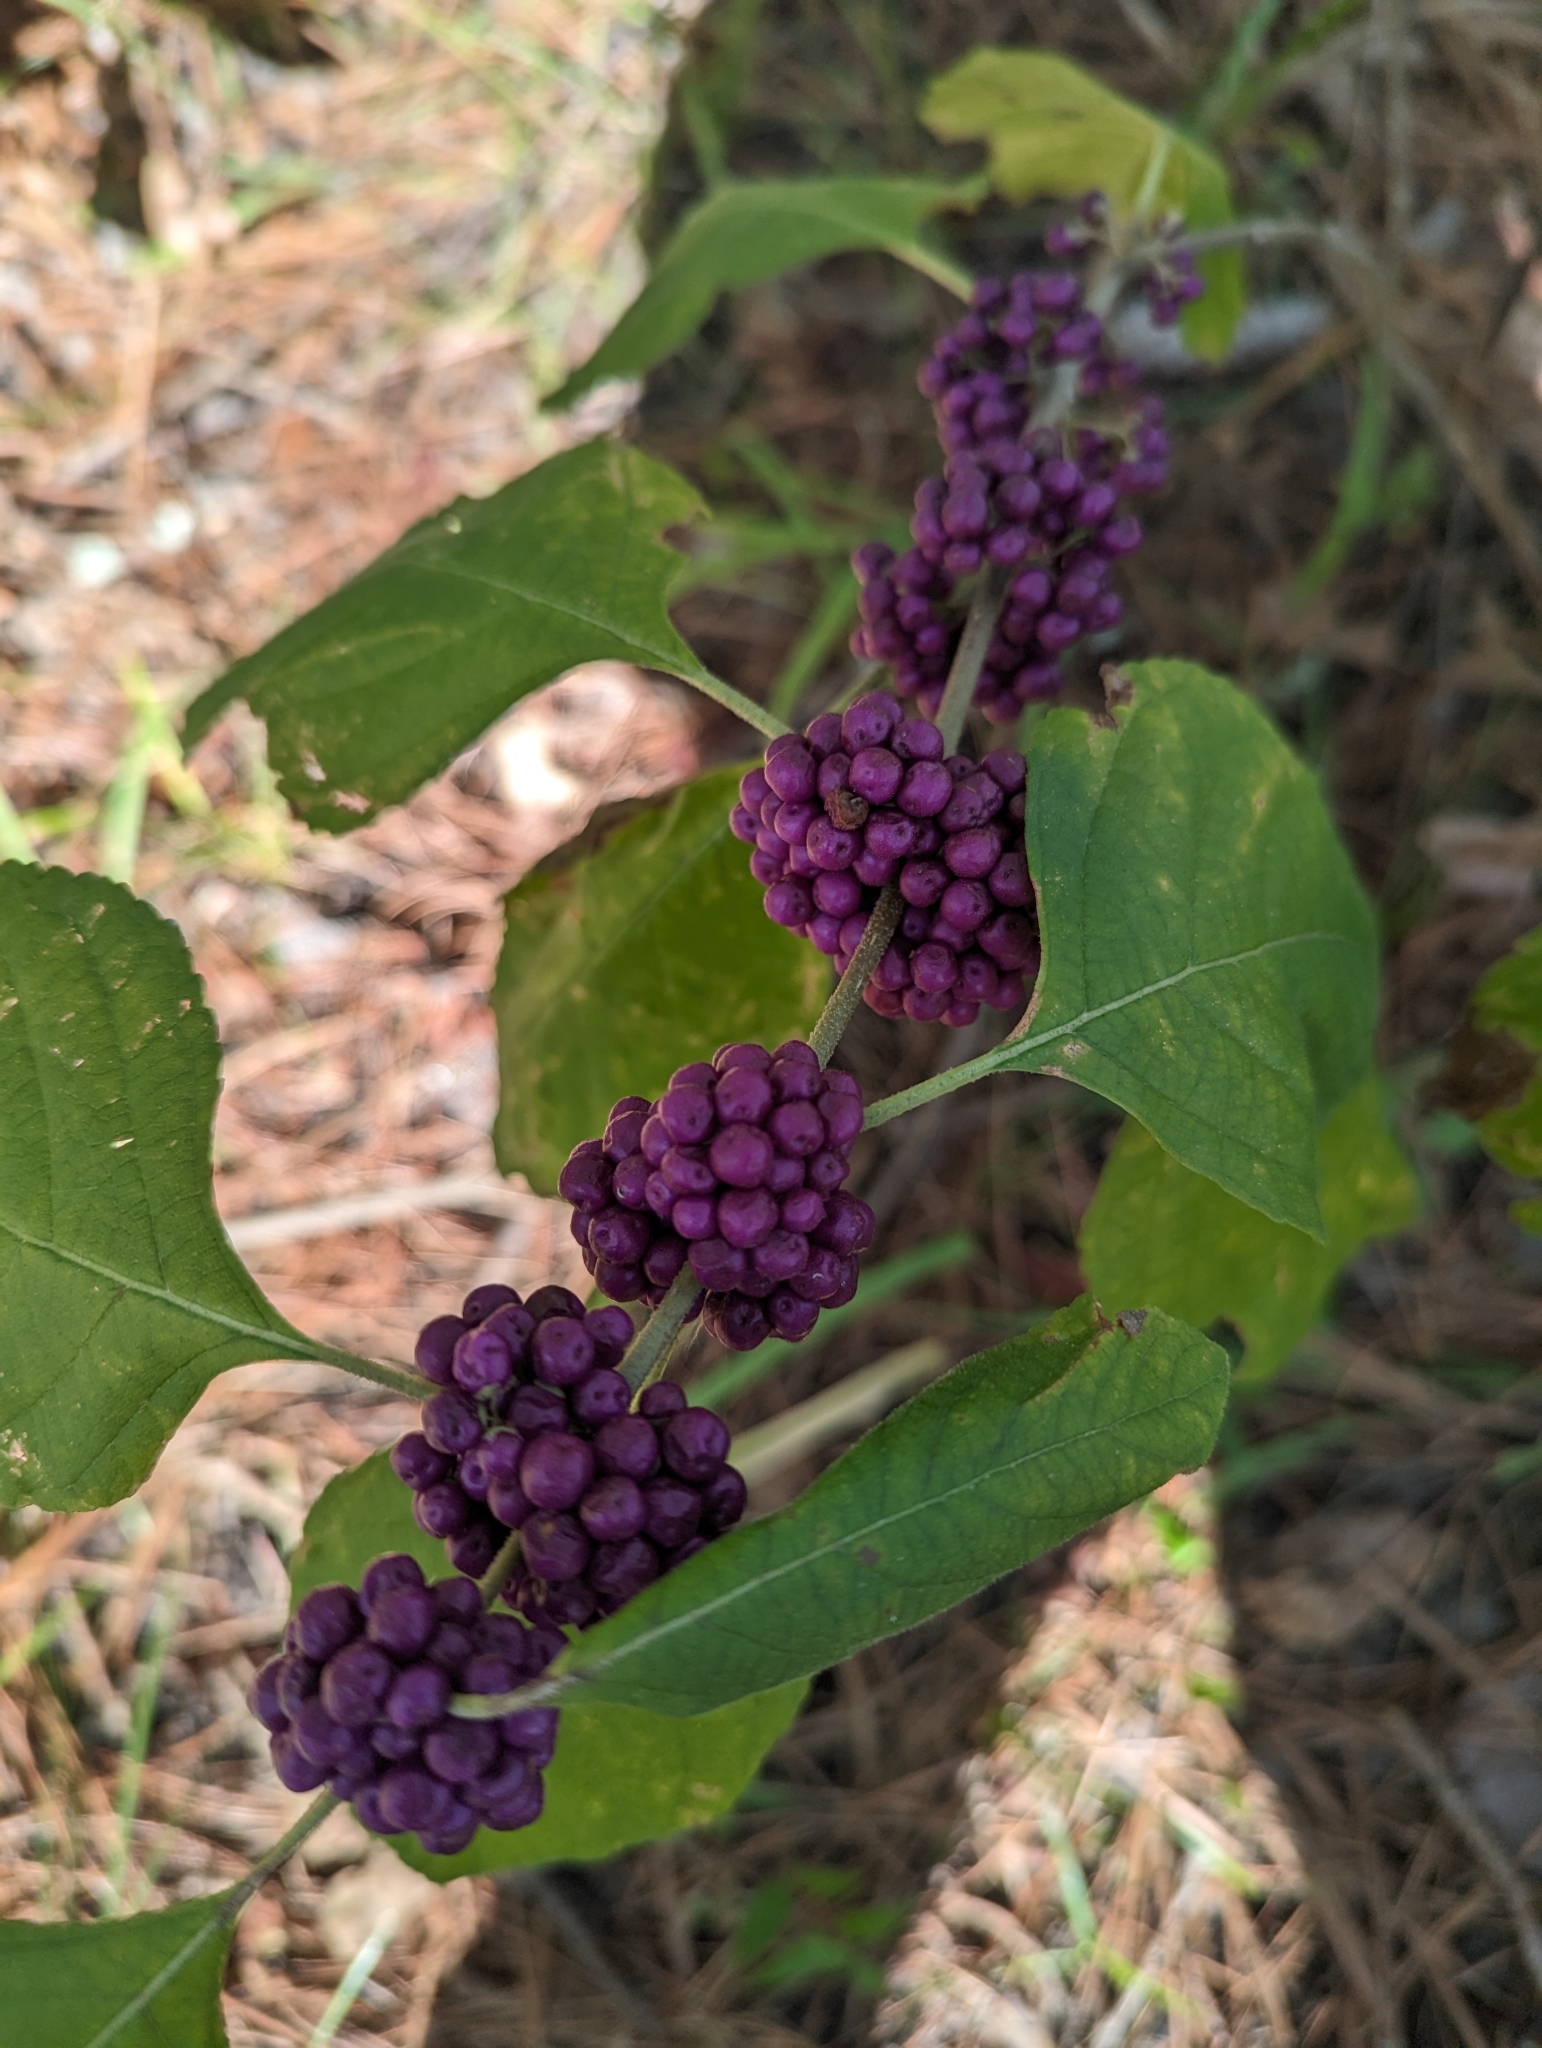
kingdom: Plantae
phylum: Tracheophyta
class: Magnoliopsida
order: Lamiales
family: Lamiaceae
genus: Callicarpa
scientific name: Callicarpa americana
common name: American beautyberry
